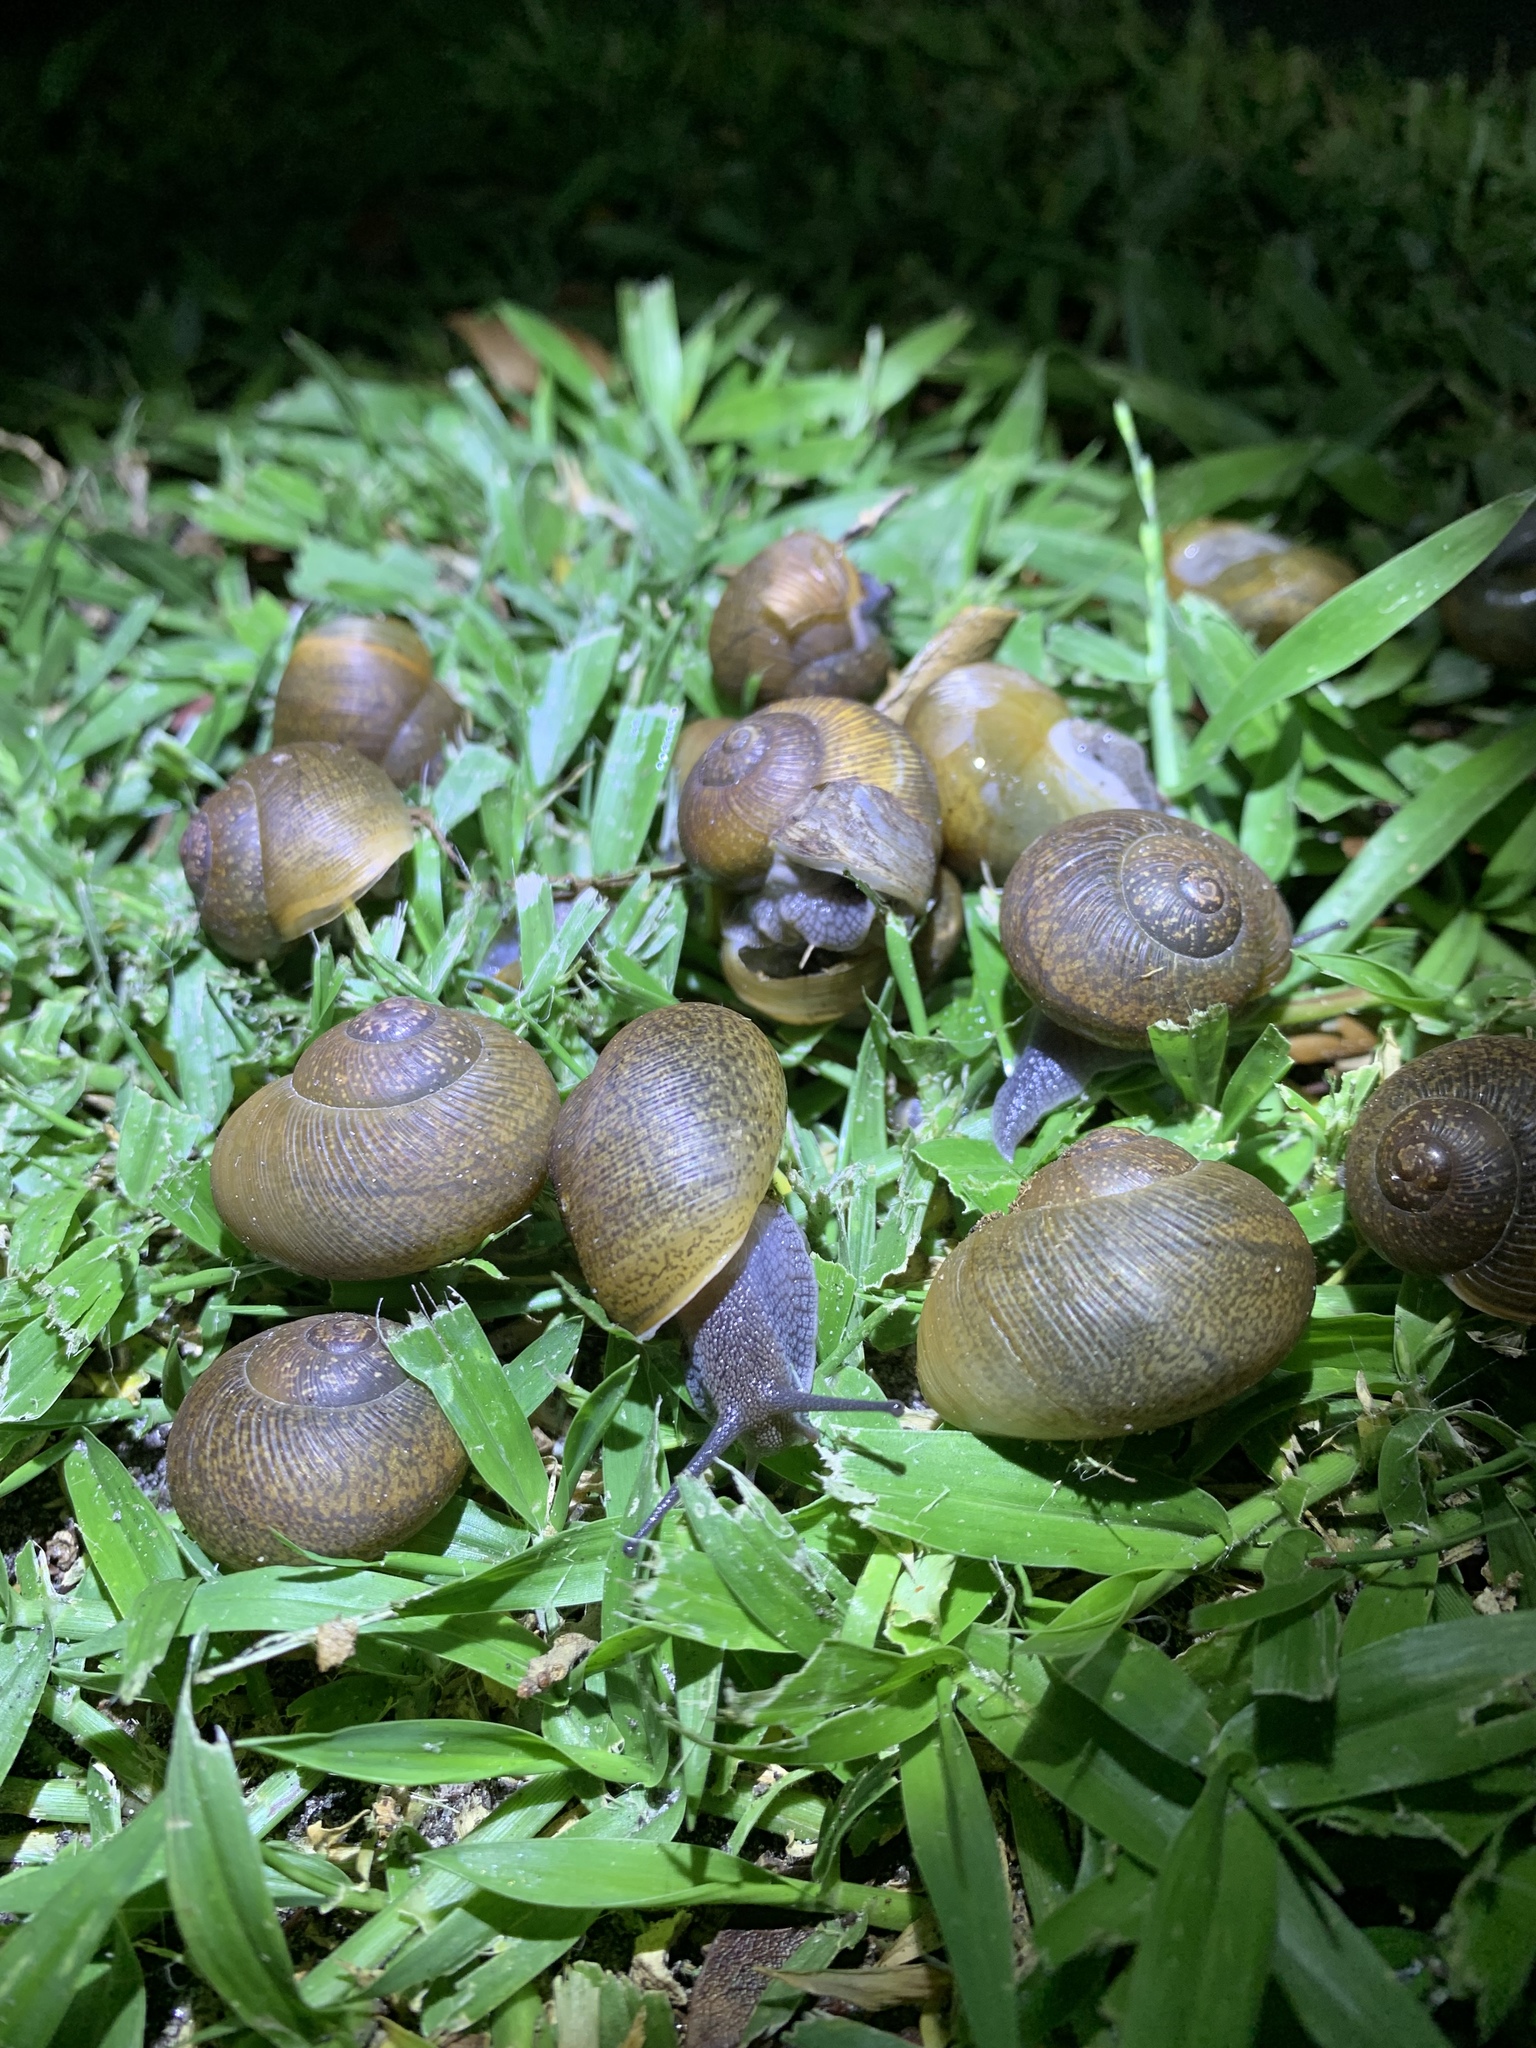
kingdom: Animalia
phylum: Mollusca
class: Gastropoda
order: Stylommatophora
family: Zachrysiidae
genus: Zachrysia
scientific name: Zachrysia provisoria
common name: Garden zachrysia
